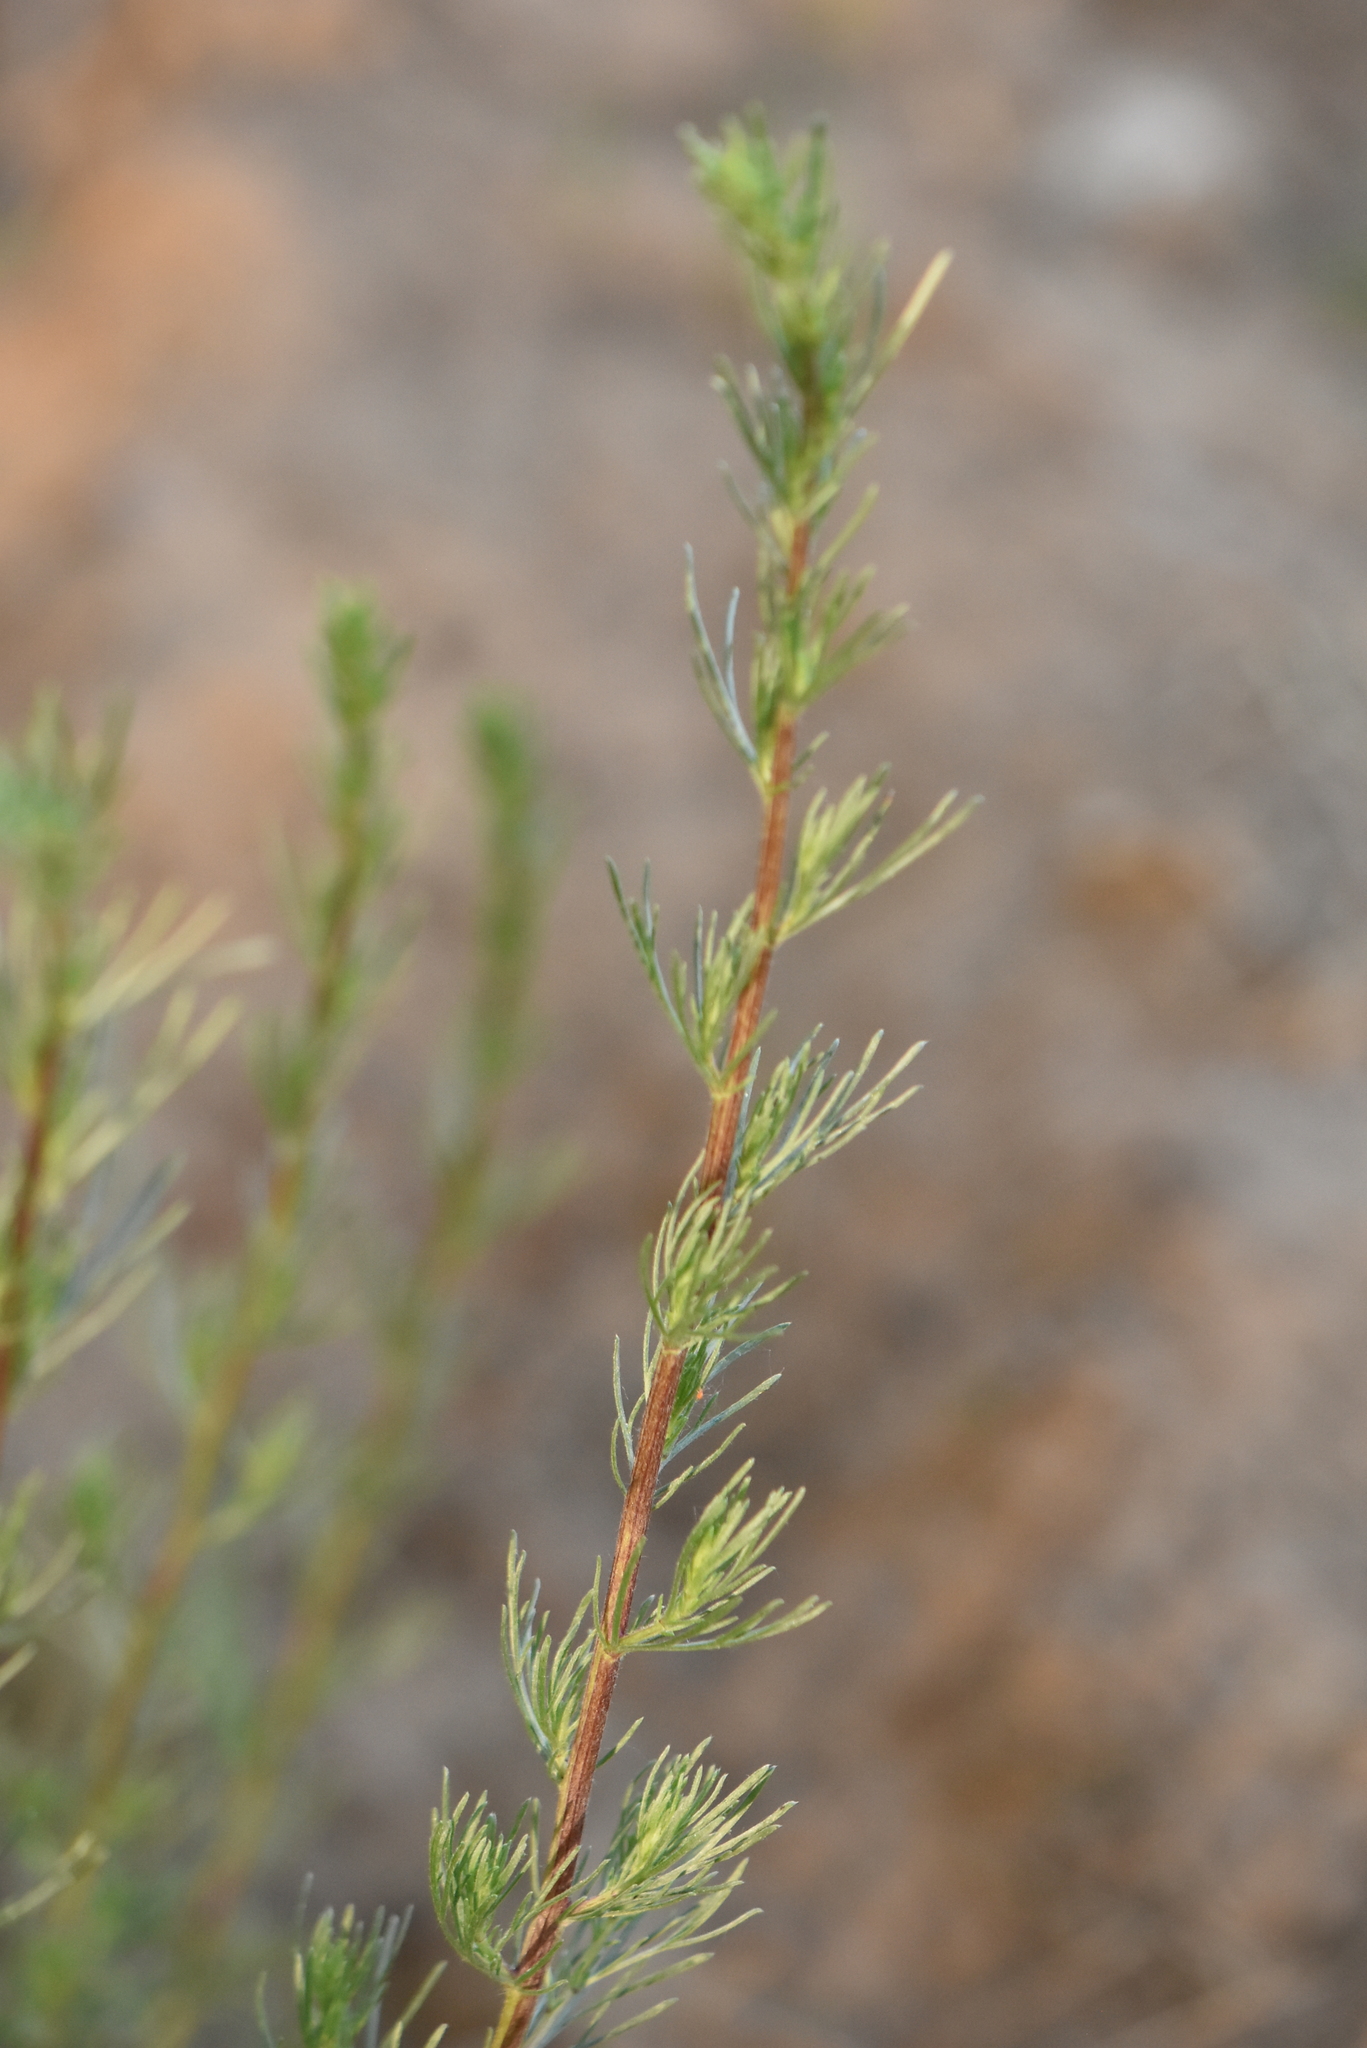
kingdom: Plantae
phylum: Tracheophyta
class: Magnoliopsida
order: Asterales
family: Asteraceae
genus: Artemisia
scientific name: Artemisia campestris
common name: Field wormwood
